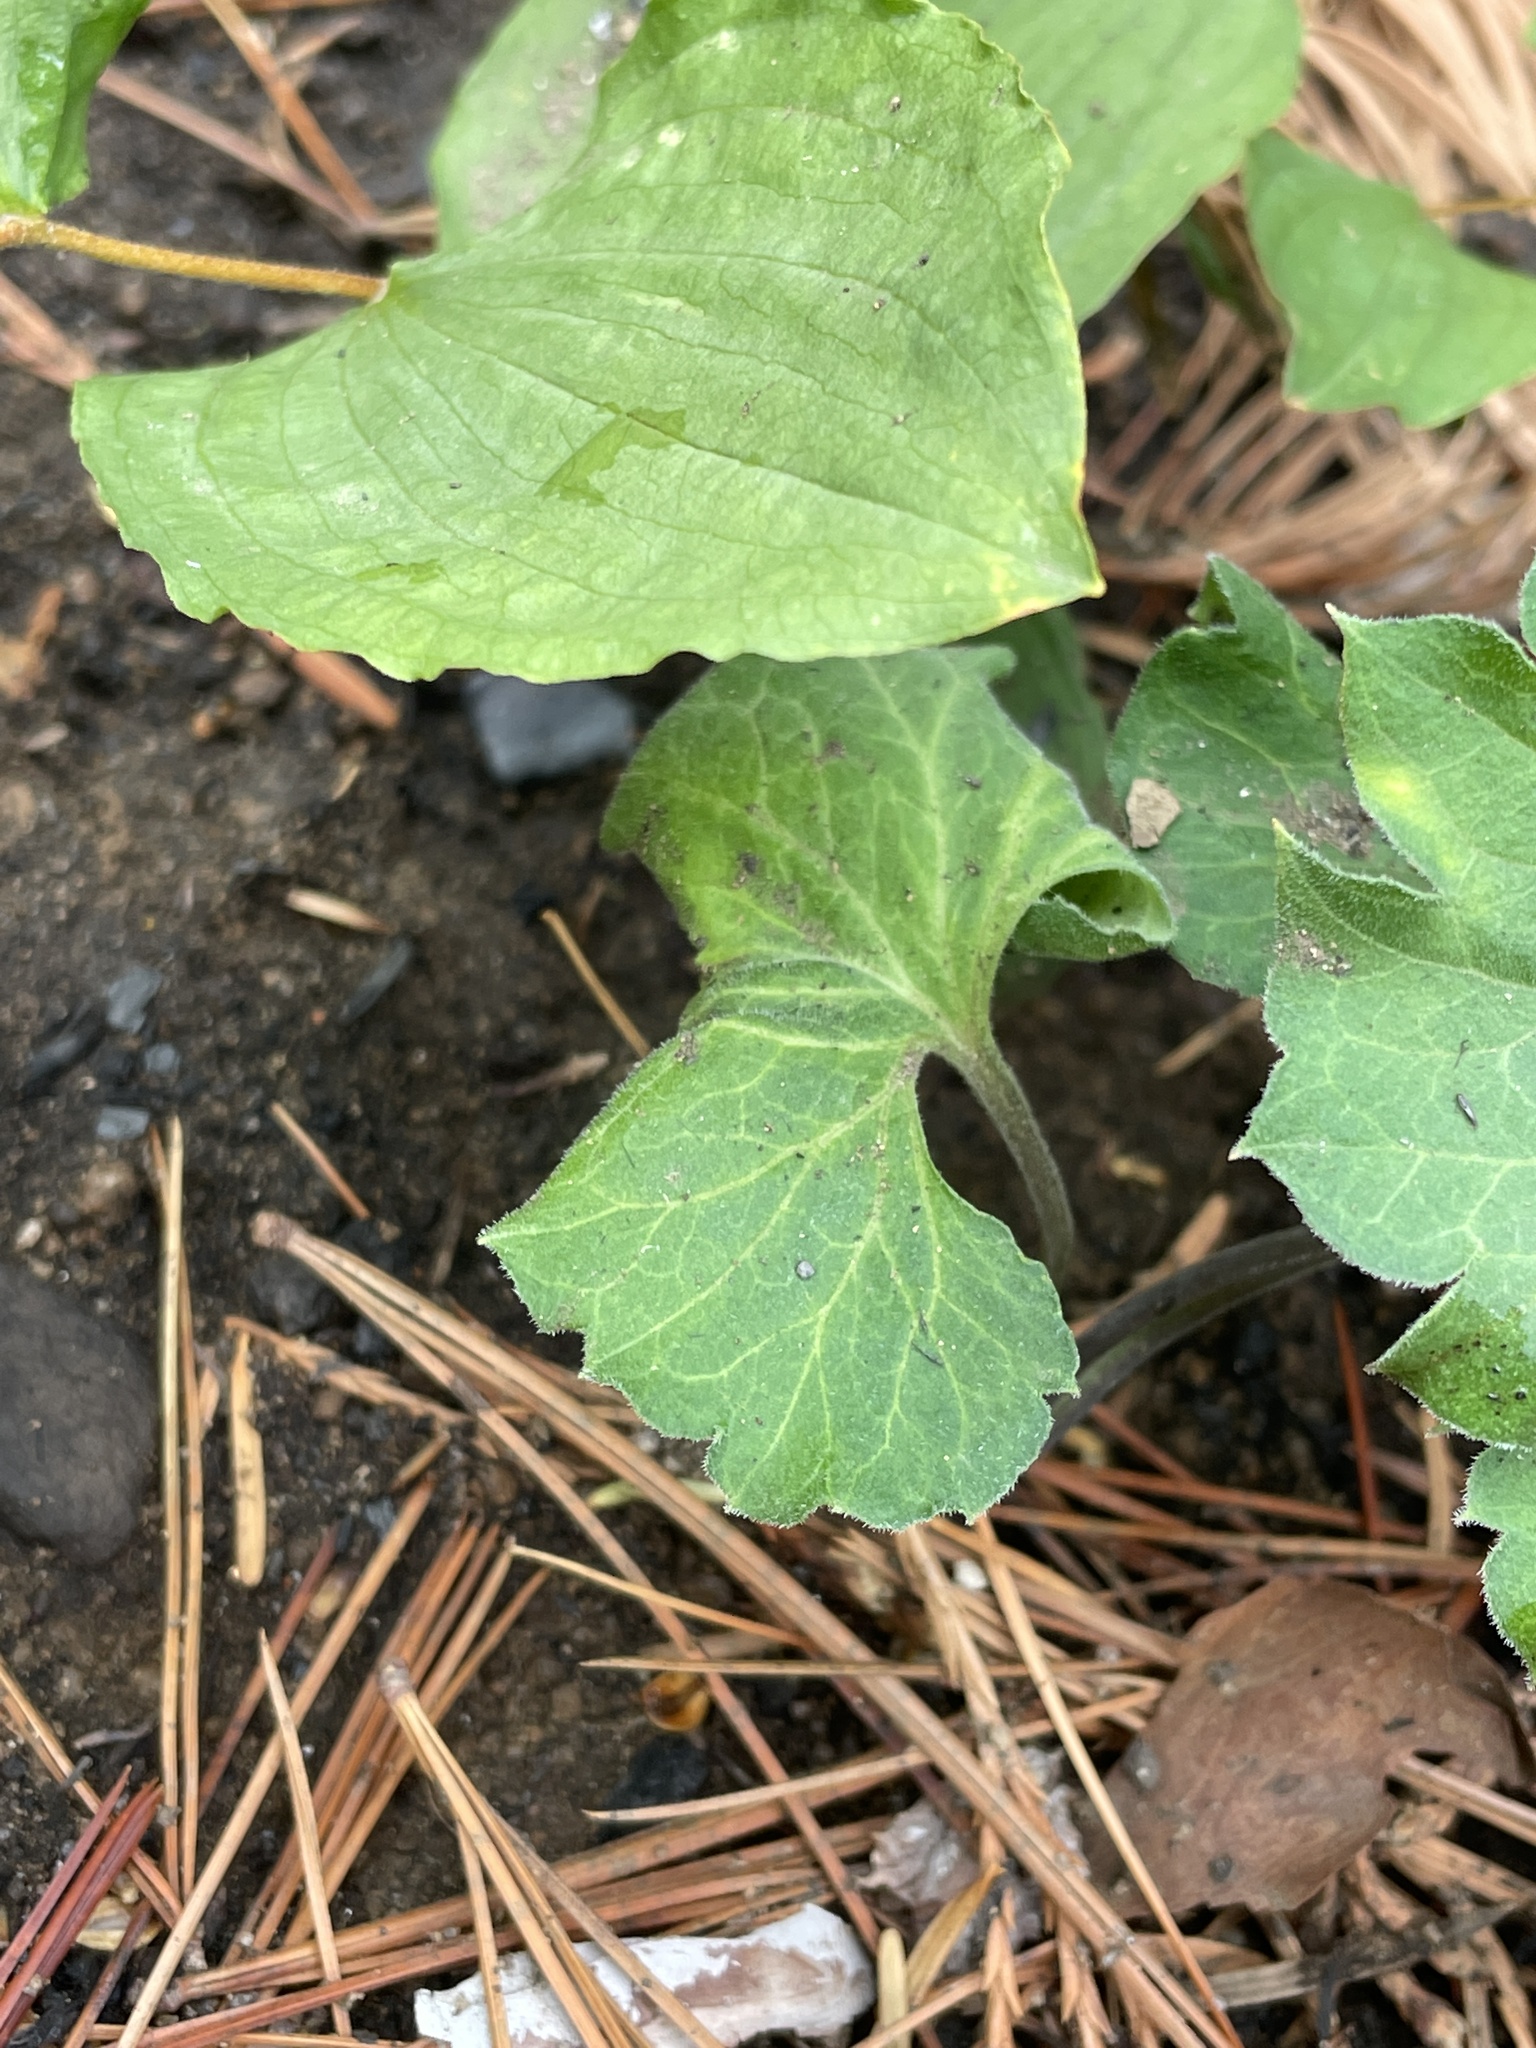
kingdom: Plantae
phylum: Tracheophyta
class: Magnoliopsida
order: Malpighiales
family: Violaceae
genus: Viola
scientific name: Viola lobata
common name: Pine violet
